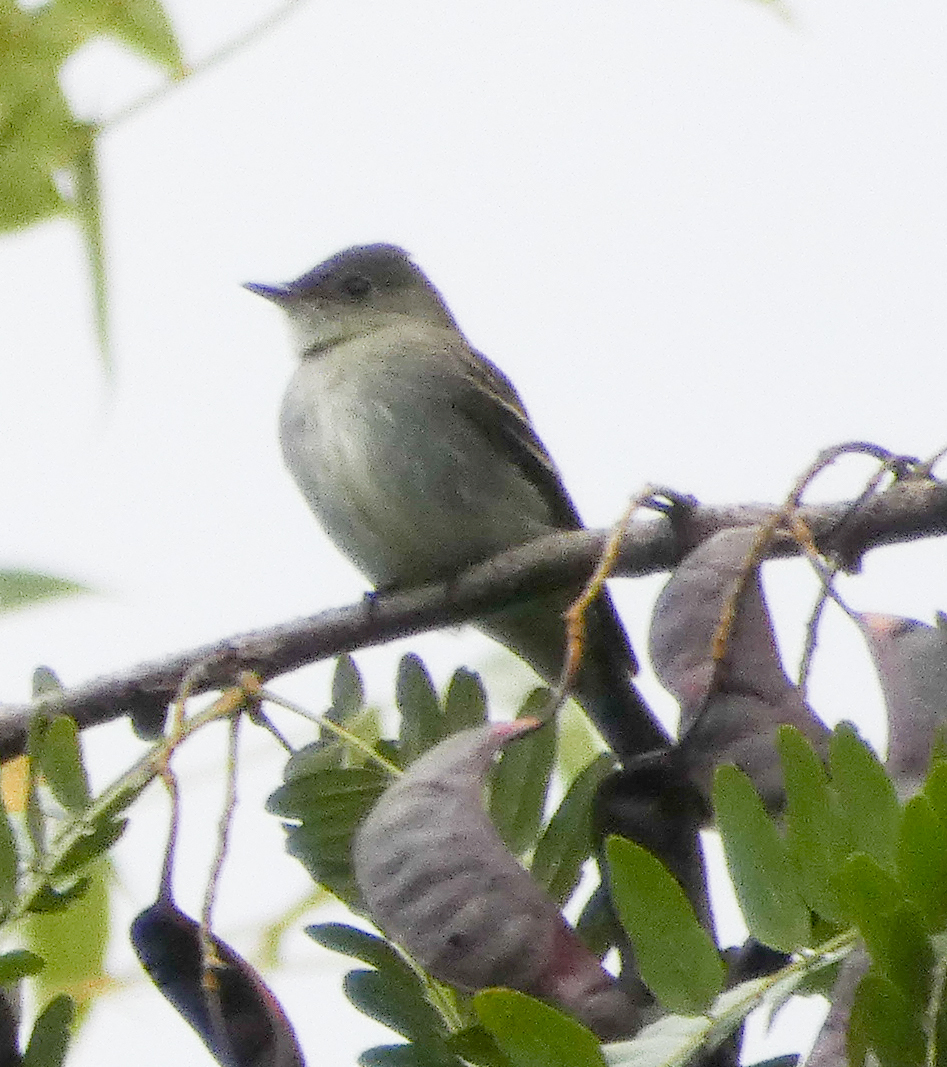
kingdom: Animalia
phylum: Chordata
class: Aves
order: Passeriformes
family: Tyrannidae
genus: Contopus
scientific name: Contopus virens
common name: Eastern wood-pewee
